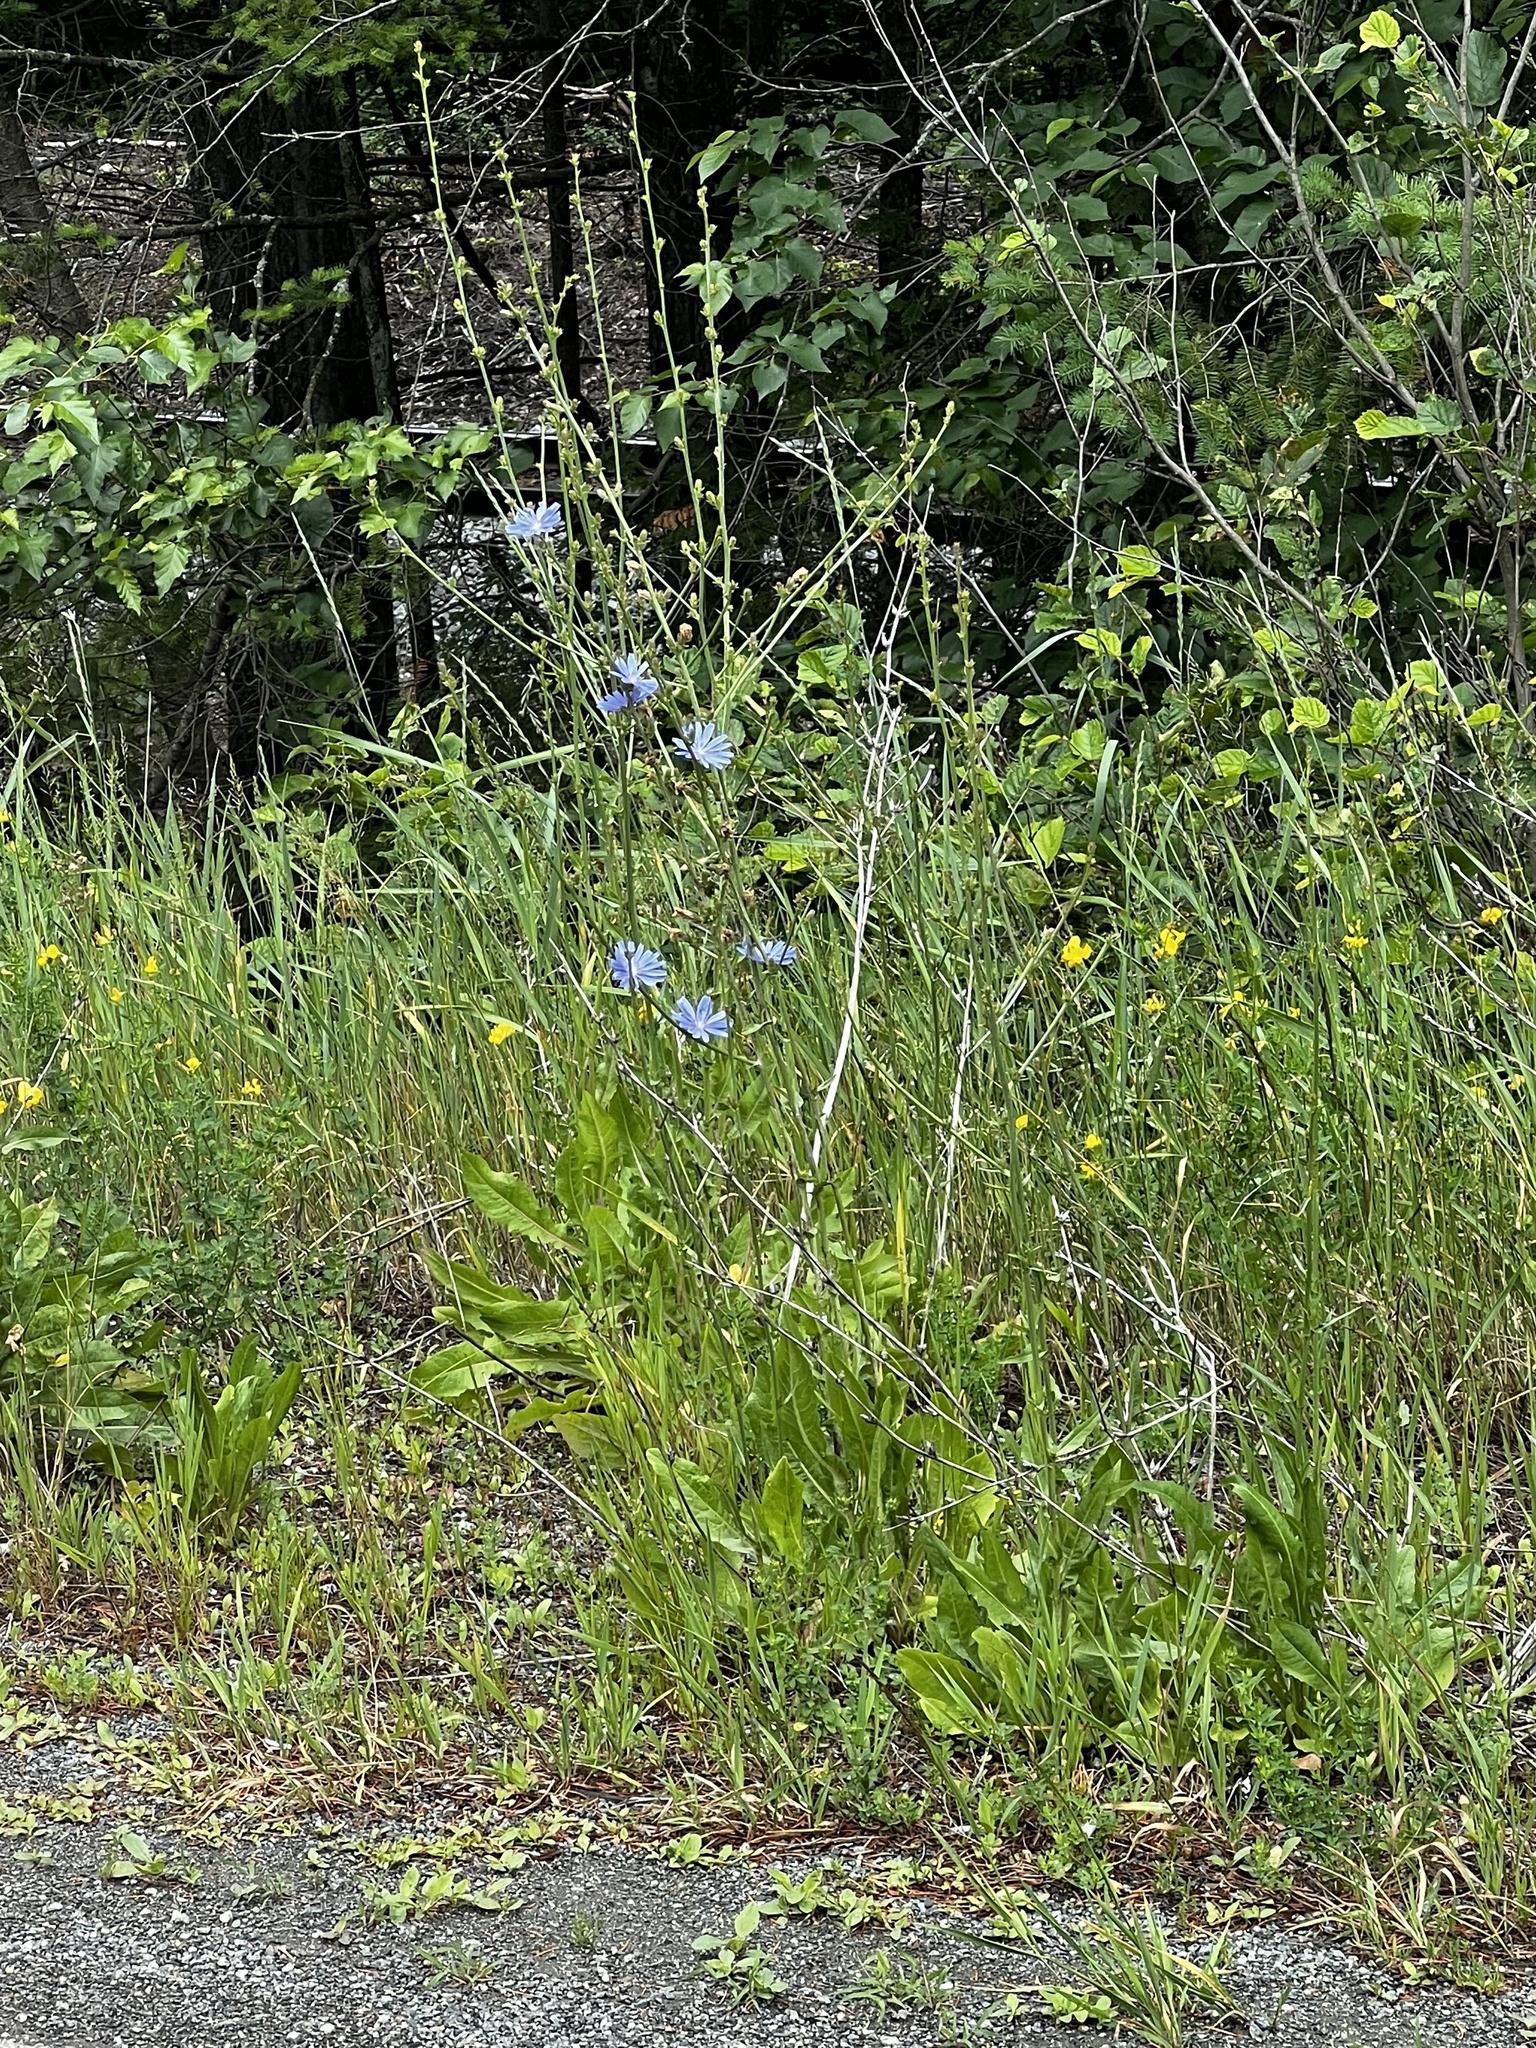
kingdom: Plantae
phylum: Tracheophyta
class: Magnoliopsida
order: Asterales
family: Asteraceae
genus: Centaurea
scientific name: Centaurea cyanus
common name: Cornflower
